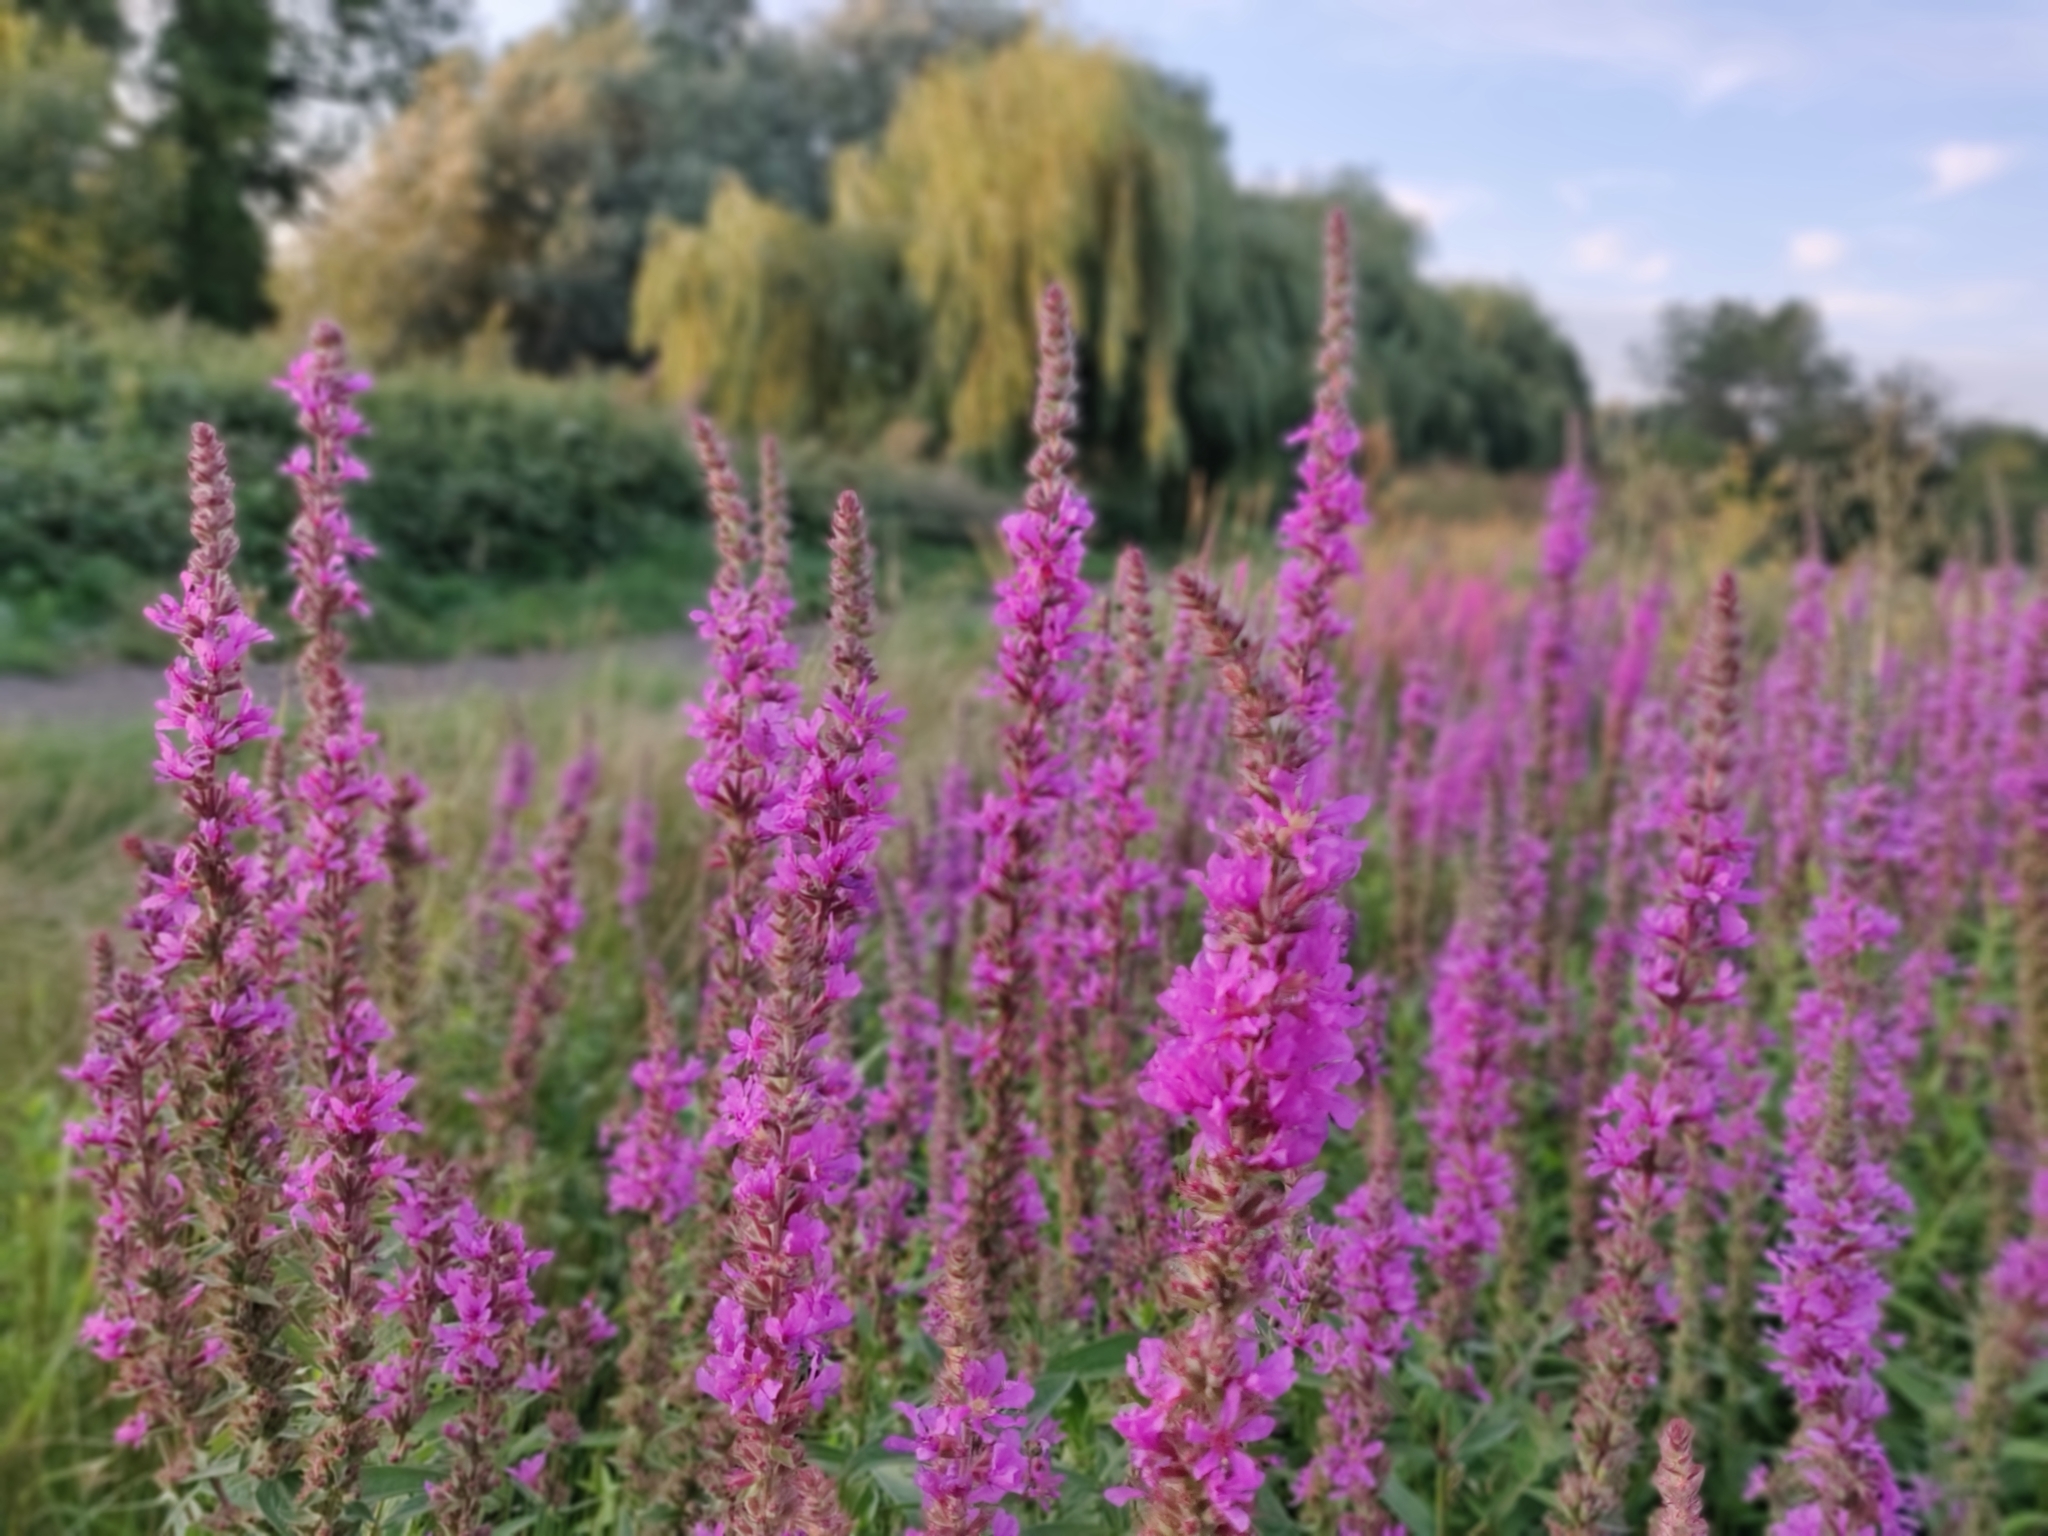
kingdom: Plantae
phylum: Tracheophyta
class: Magnoliopsida
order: Myrtales
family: Lythraceae
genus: Lythrum
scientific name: Lythrum salicaria
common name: Purple loosestrife
